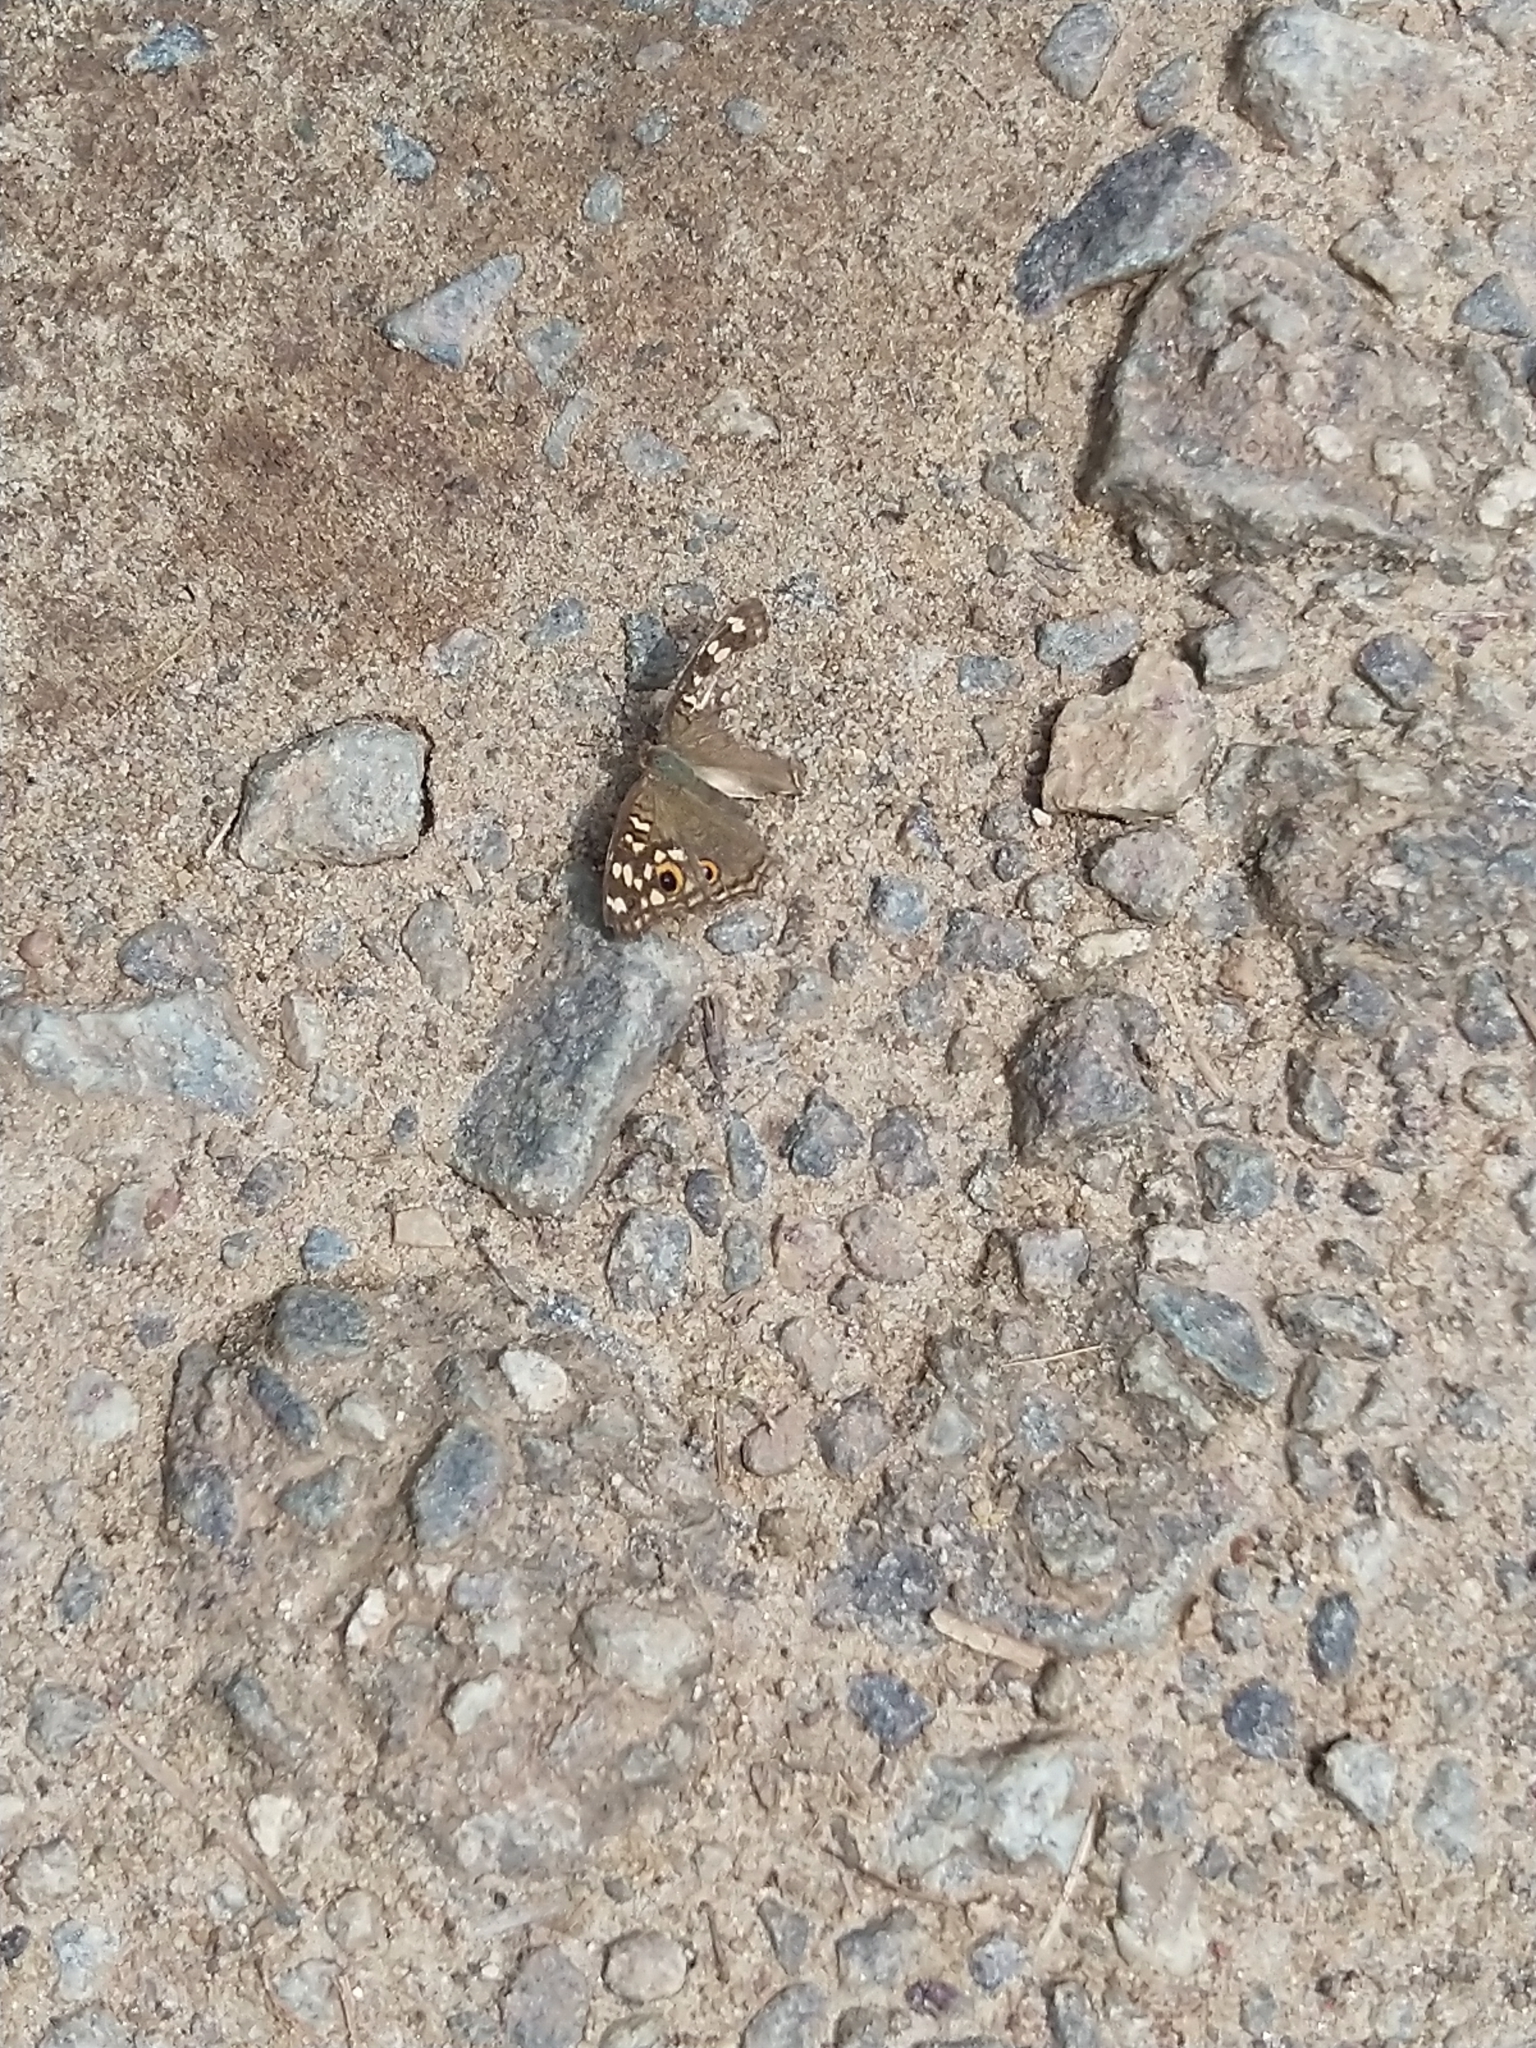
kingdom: Animalia
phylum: Arthropoda
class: Insecta
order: Lepidoptera
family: Nymphalidae
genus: Junonia
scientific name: Junonia lemonias
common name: Lemon pansy
